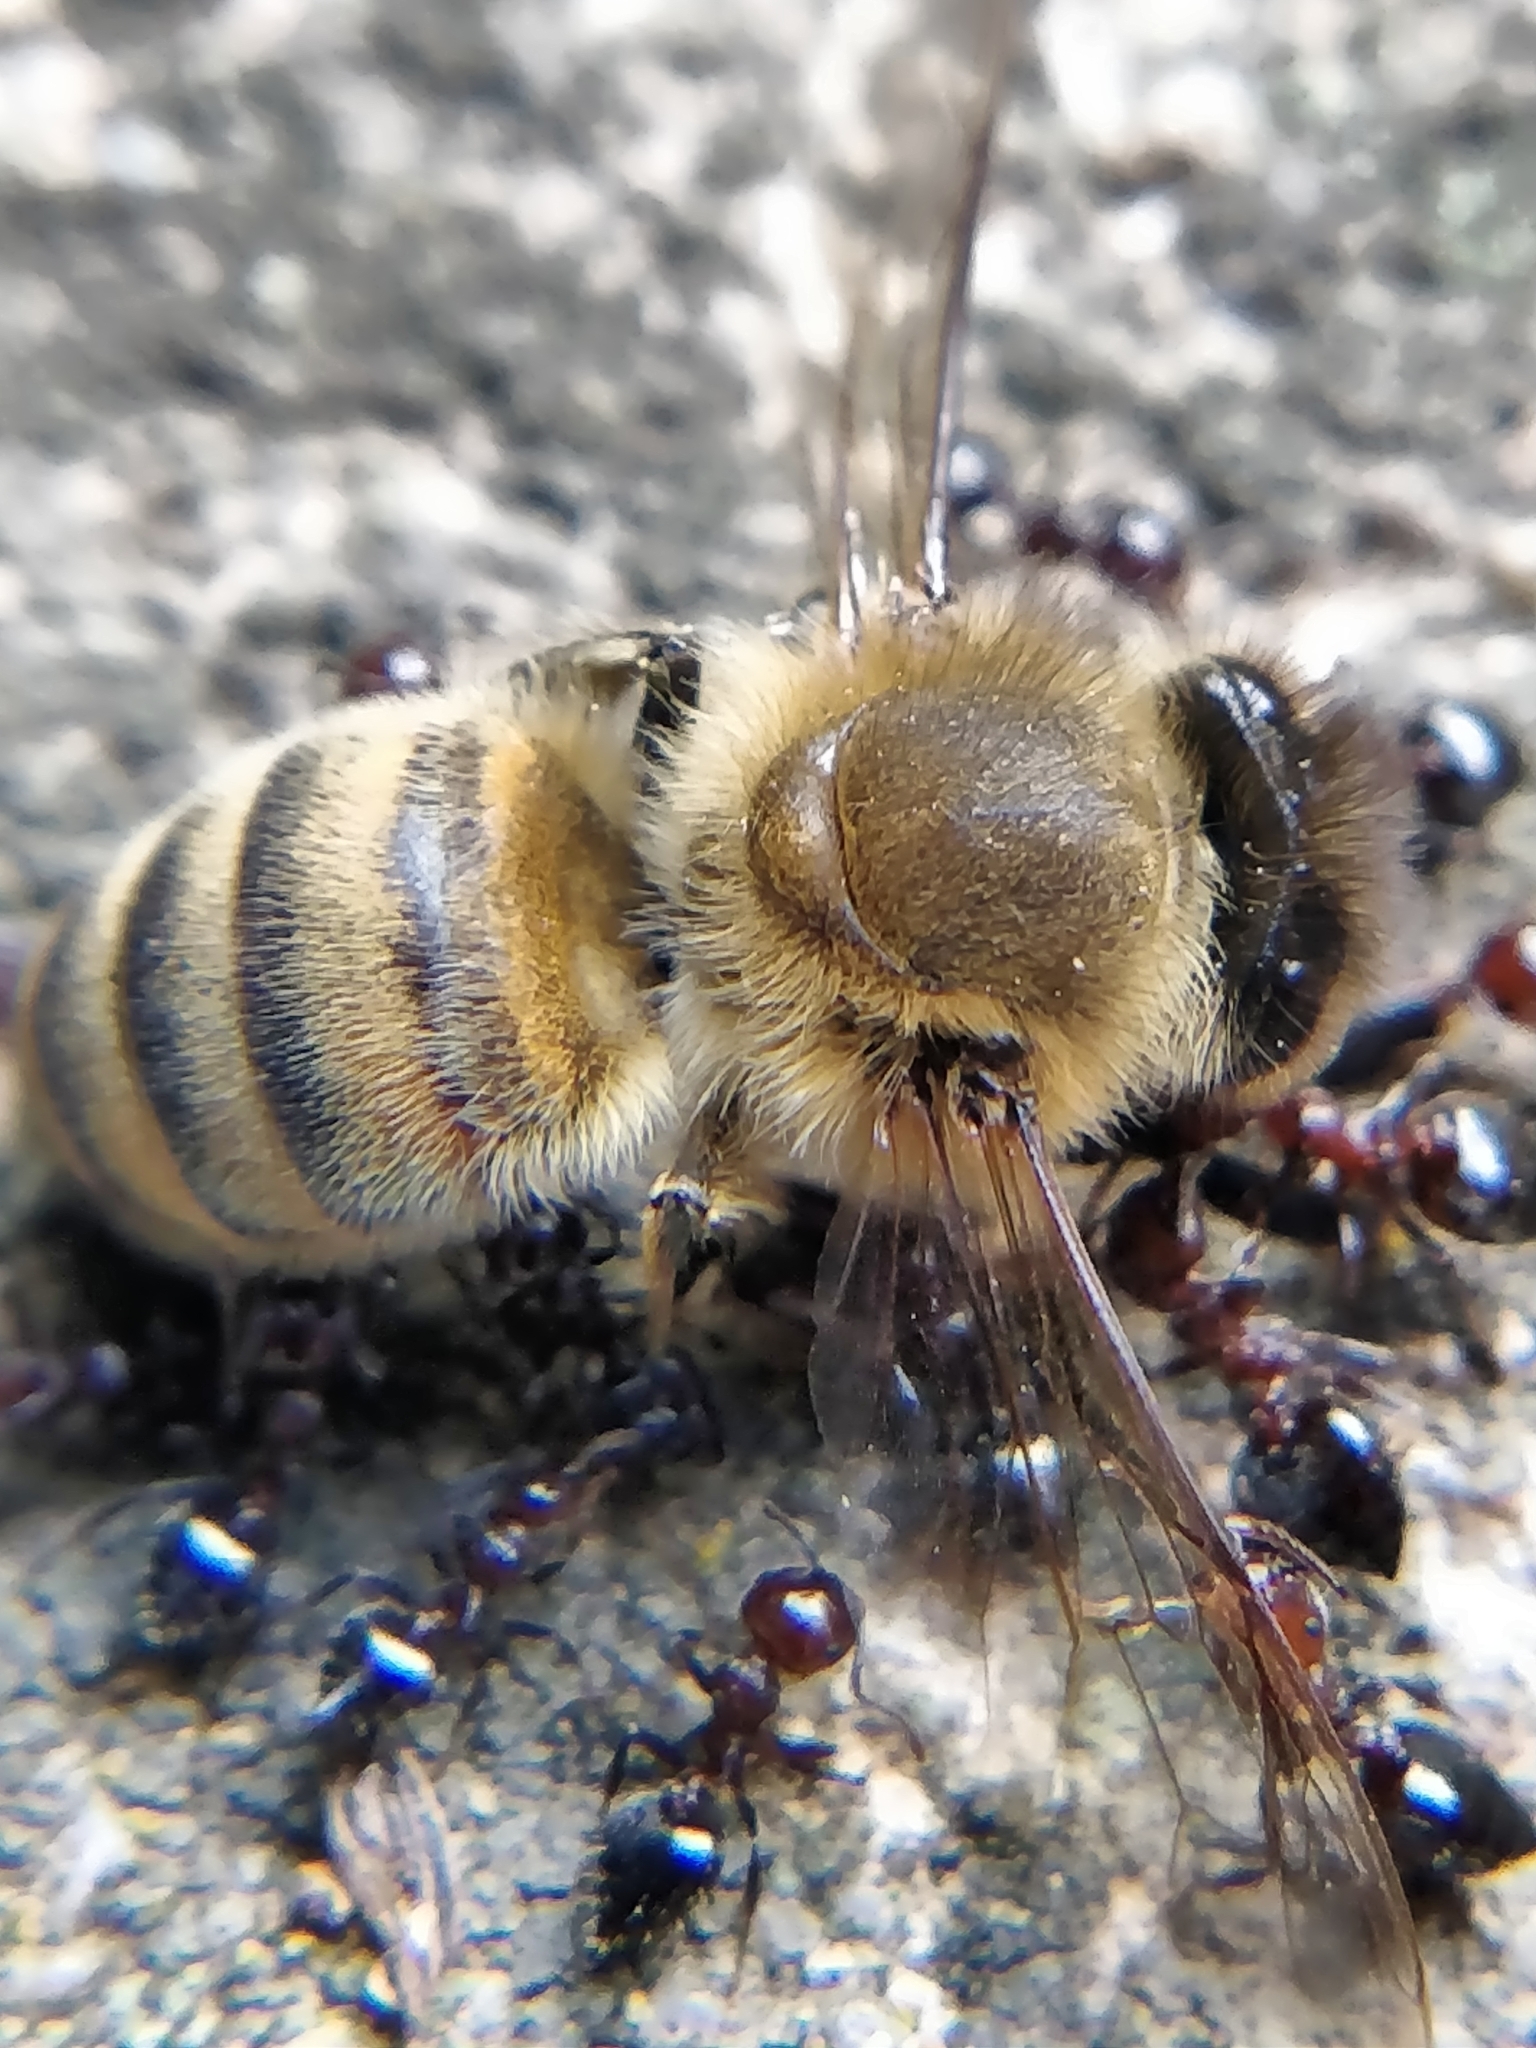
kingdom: Animalia
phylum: Arthropoda
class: Insecta
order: Hymenoptera
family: Apidae
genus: Apis
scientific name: Apis mellifera
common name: Honey bee
